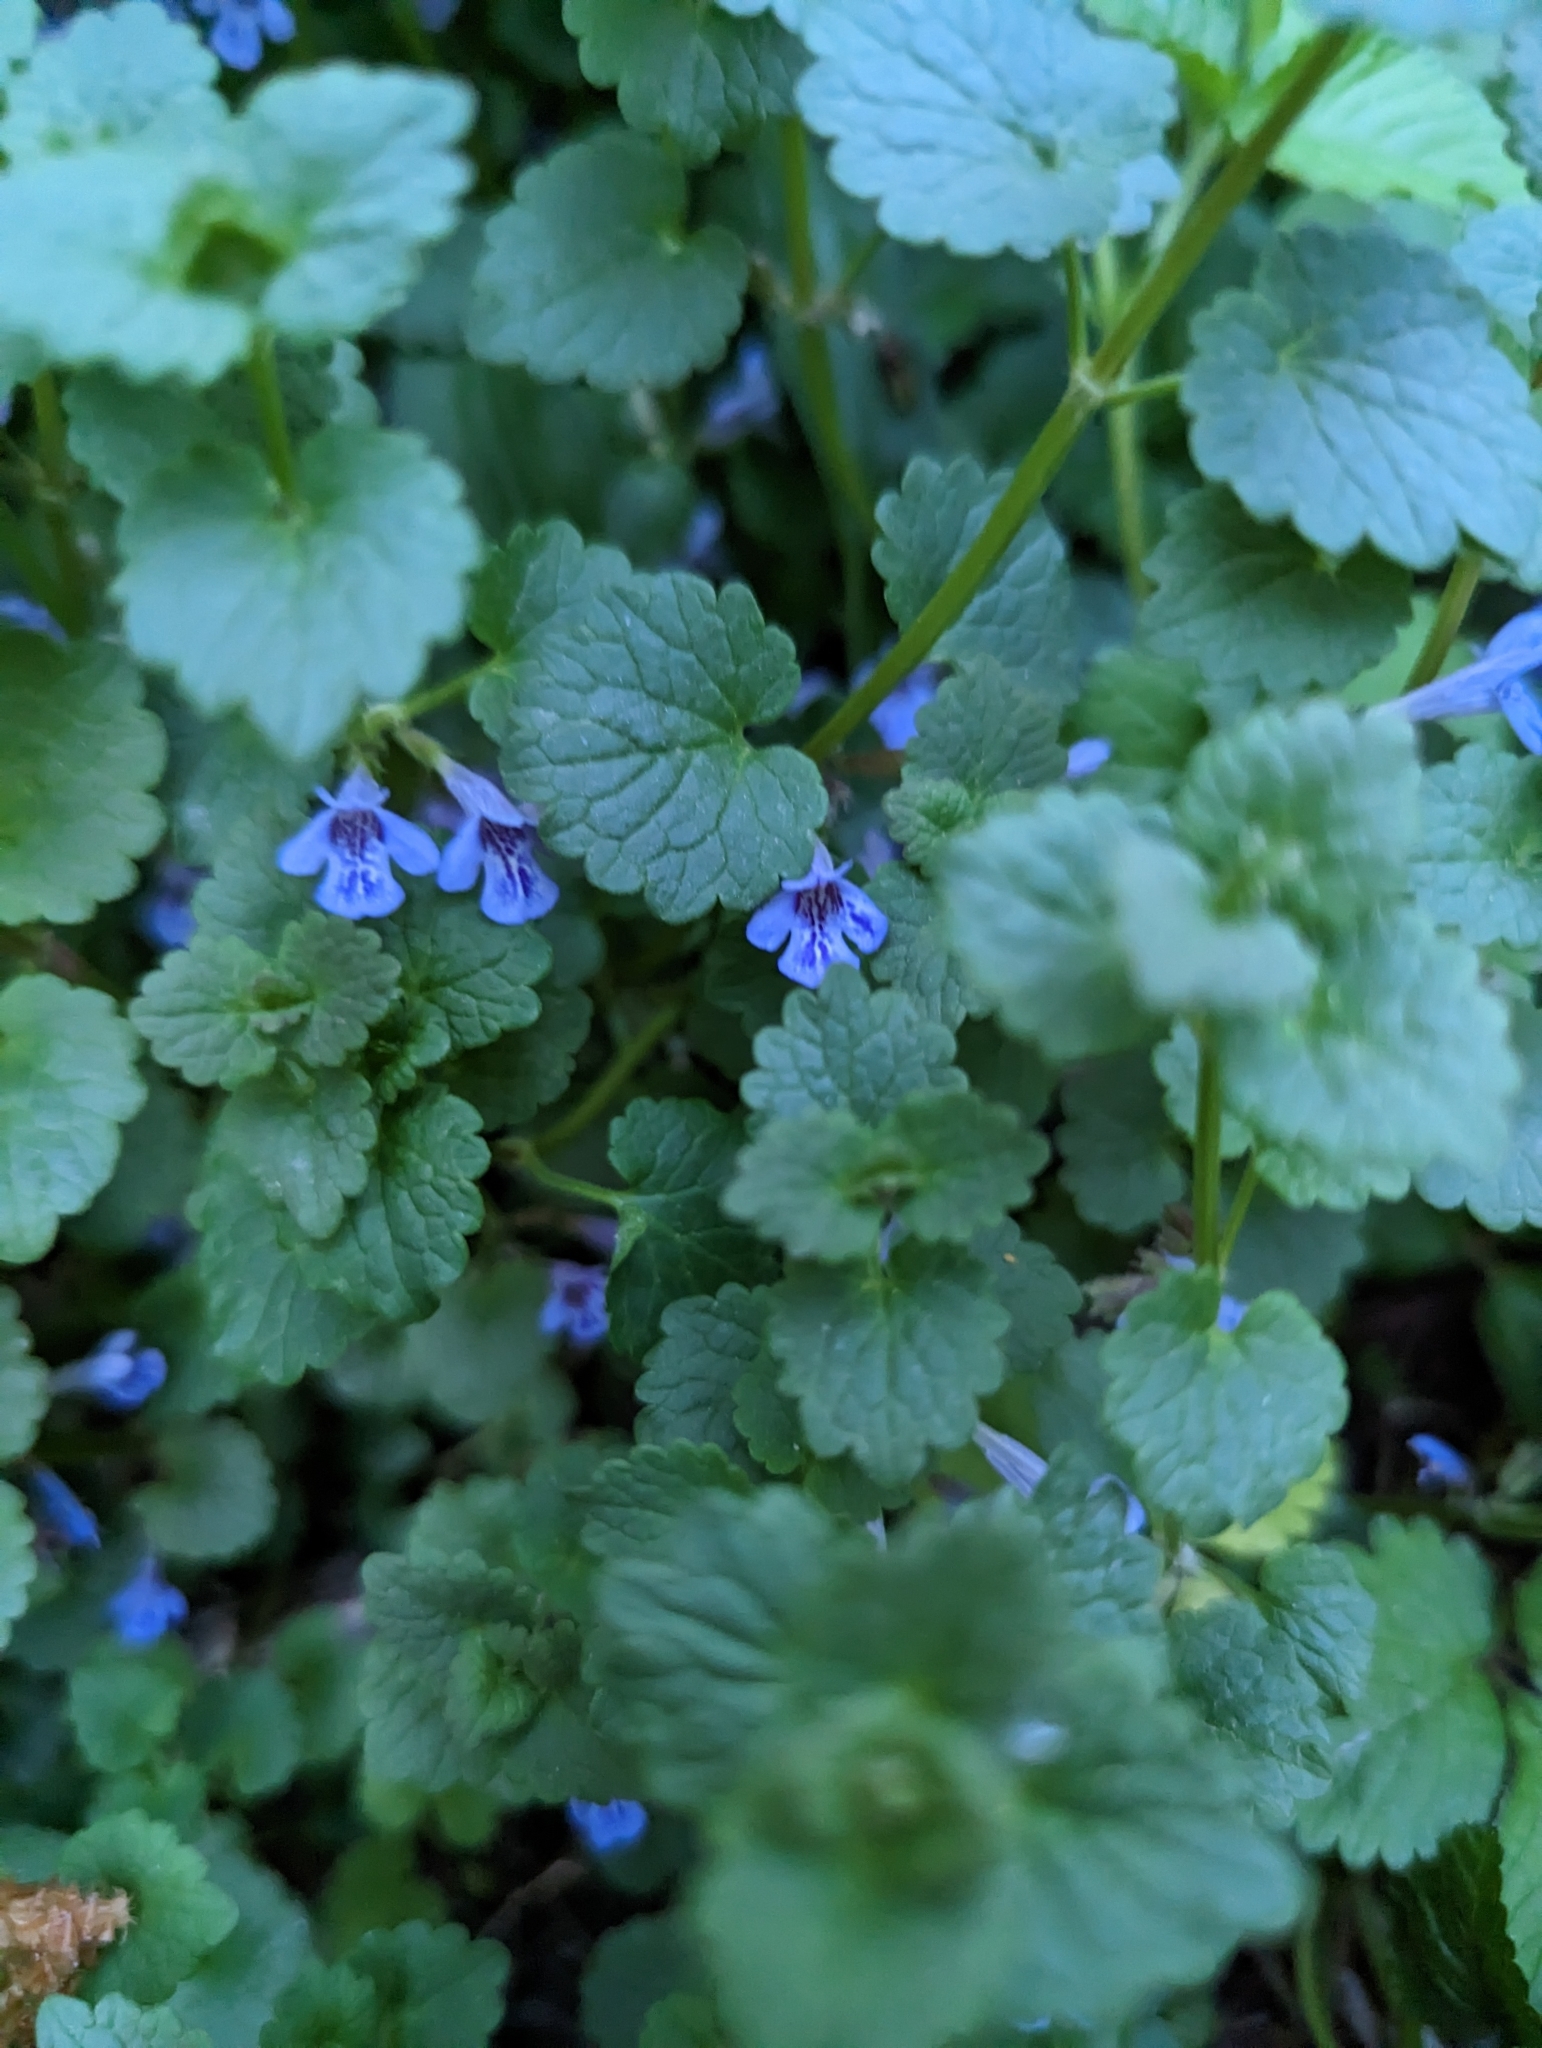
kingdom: Plantae
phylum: Tracheophyta
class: Magnoliopsida
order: Lamiales
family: Lamiaceae
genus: Glechoma
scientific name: Glechoma hederacea
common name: Ground ivy
